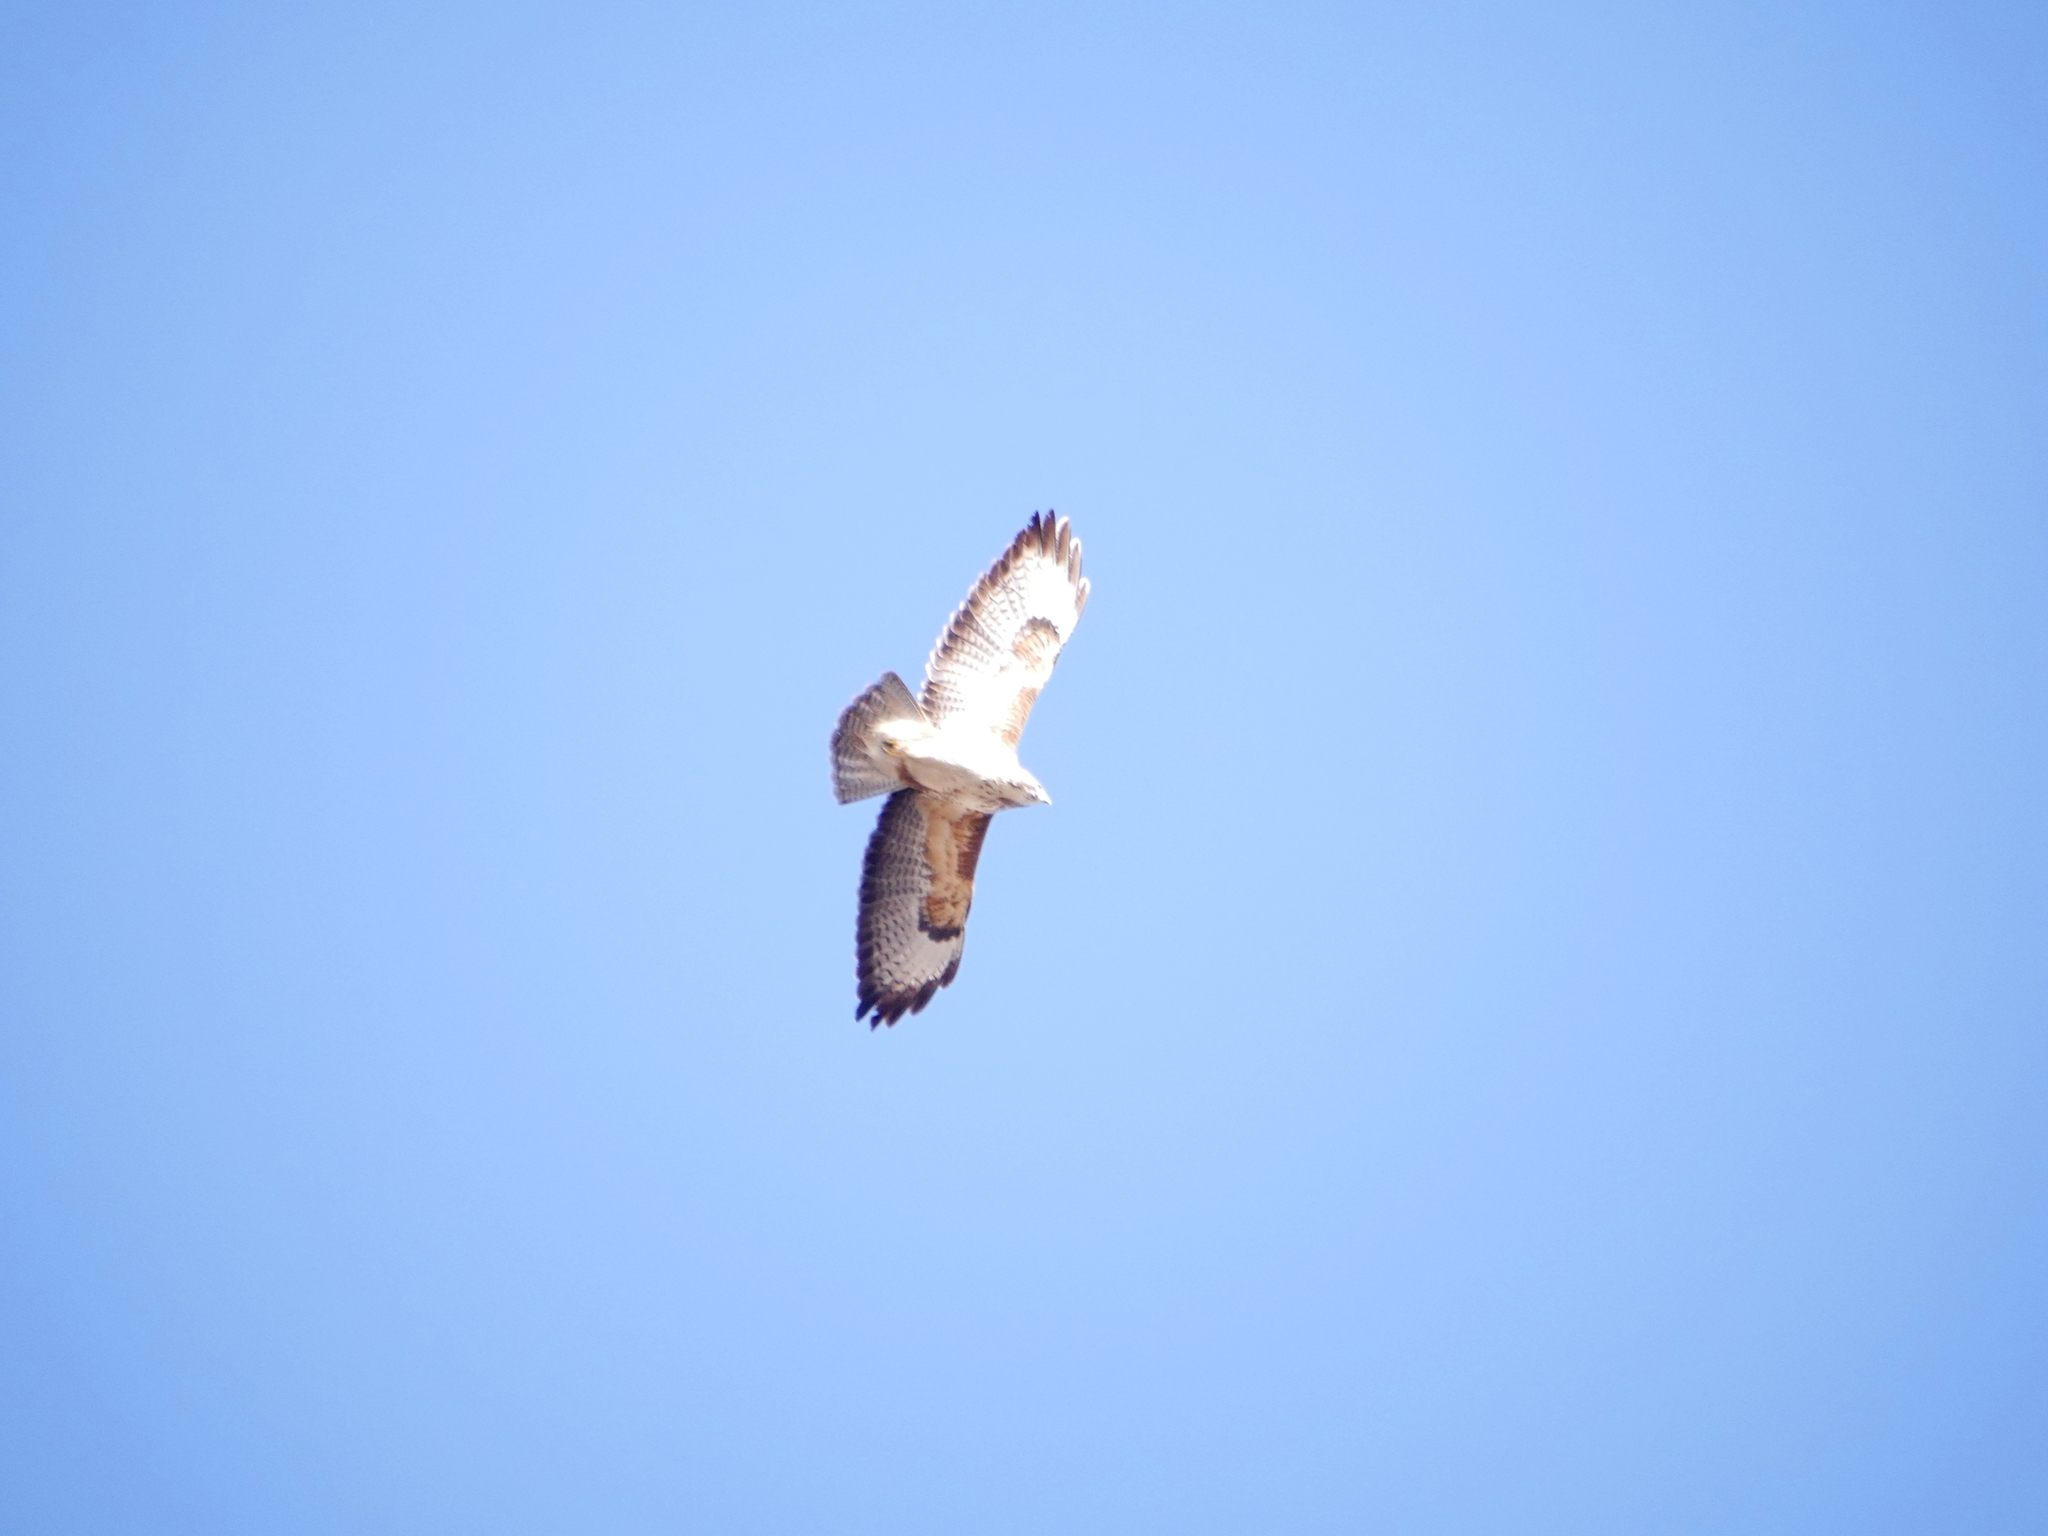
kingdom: Animalia
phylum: Chordata
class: Aves
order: Accipitriformes
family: Accipitridae
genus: Buteo
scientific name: Buteo buteo
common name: Common buzzard
